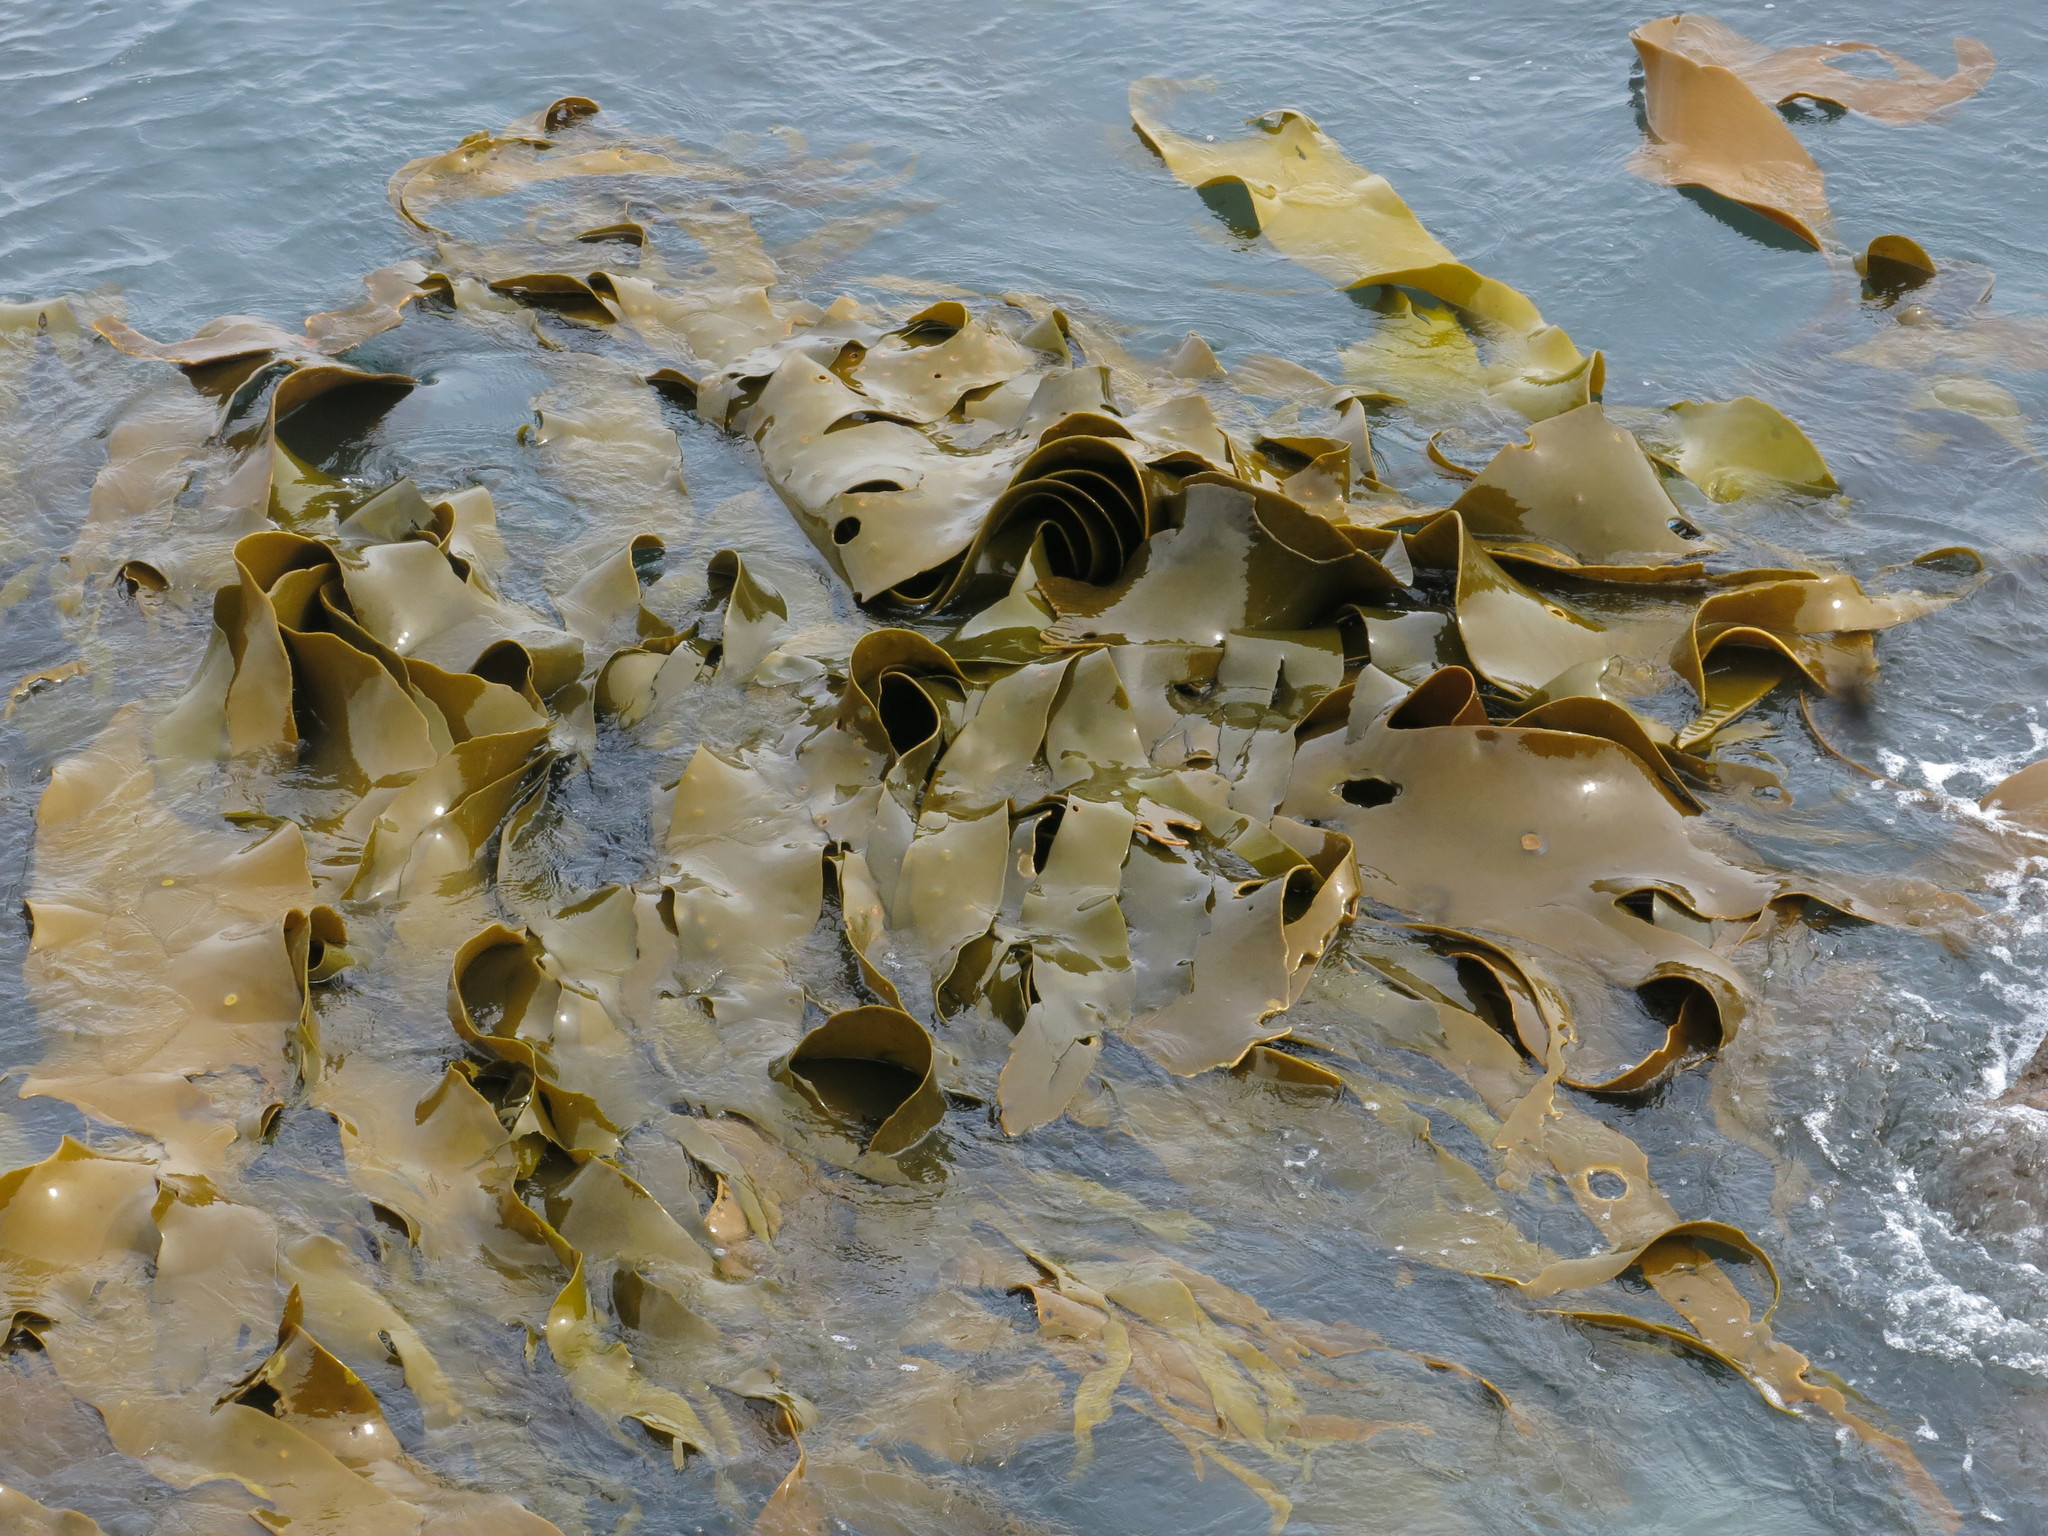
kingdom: Chromista
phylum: Ochrophyta
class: Phaeophyceae
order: Fucales
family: Durvillaeaceae
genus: Durvillaea
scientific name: Durvillaea poha
